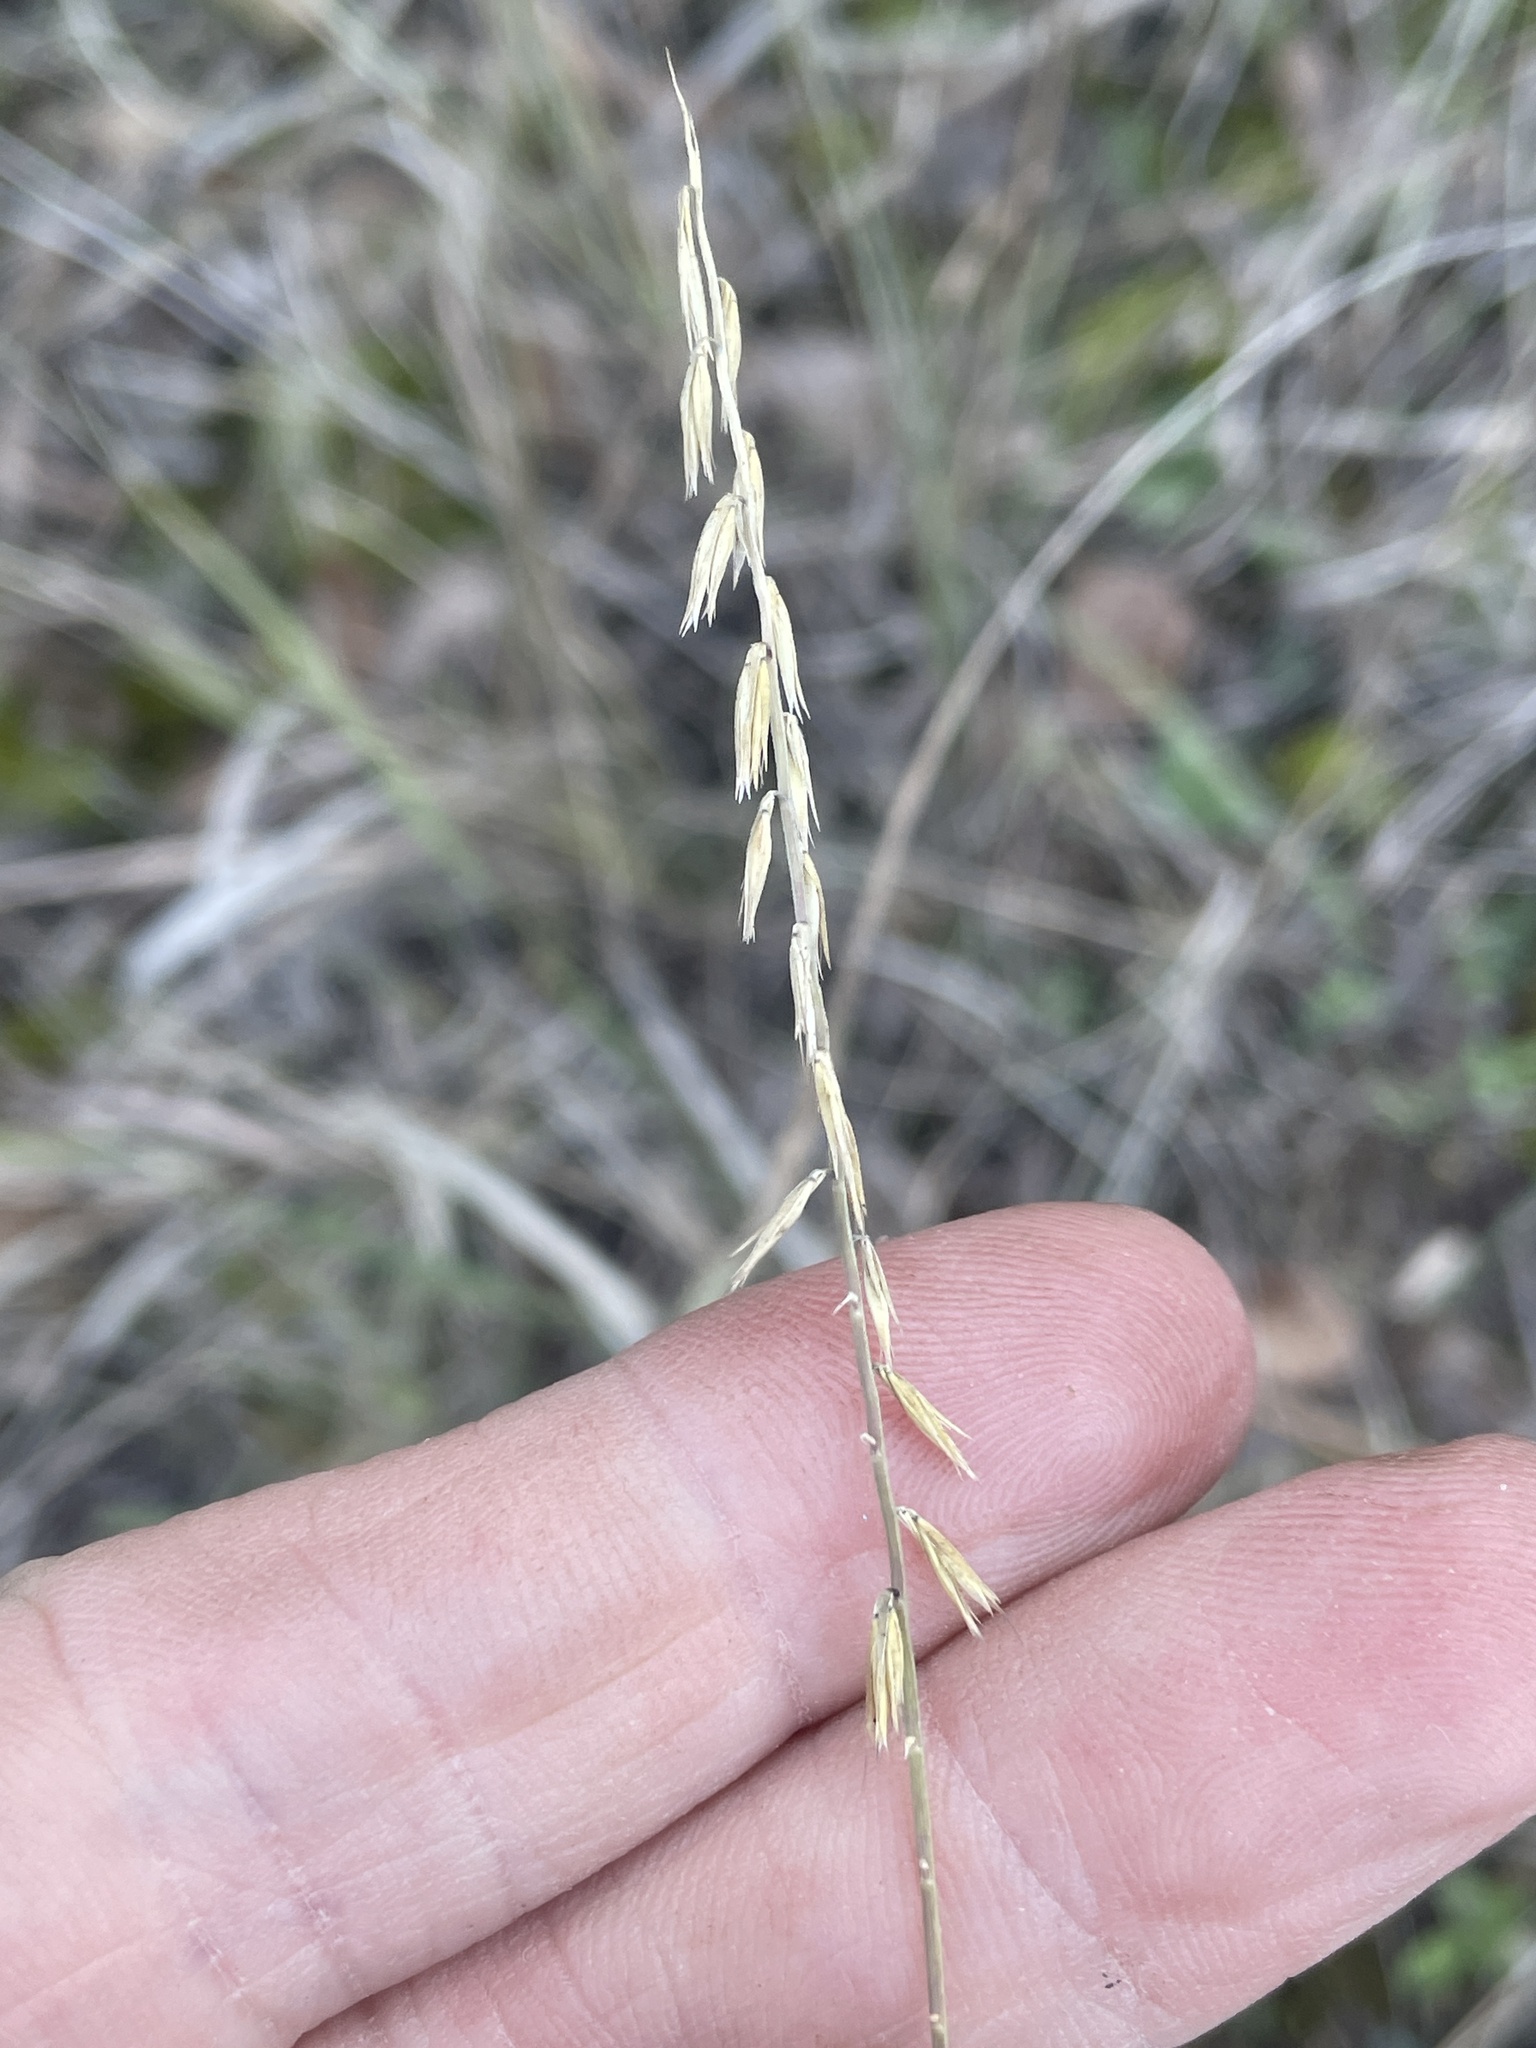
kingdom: Plantae
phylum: Tracheophyta
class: Liliopsida
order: Poales
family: Poaceae
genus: Bouteloua
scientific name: Bouteloua curtipendula
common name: Side-oats grama
